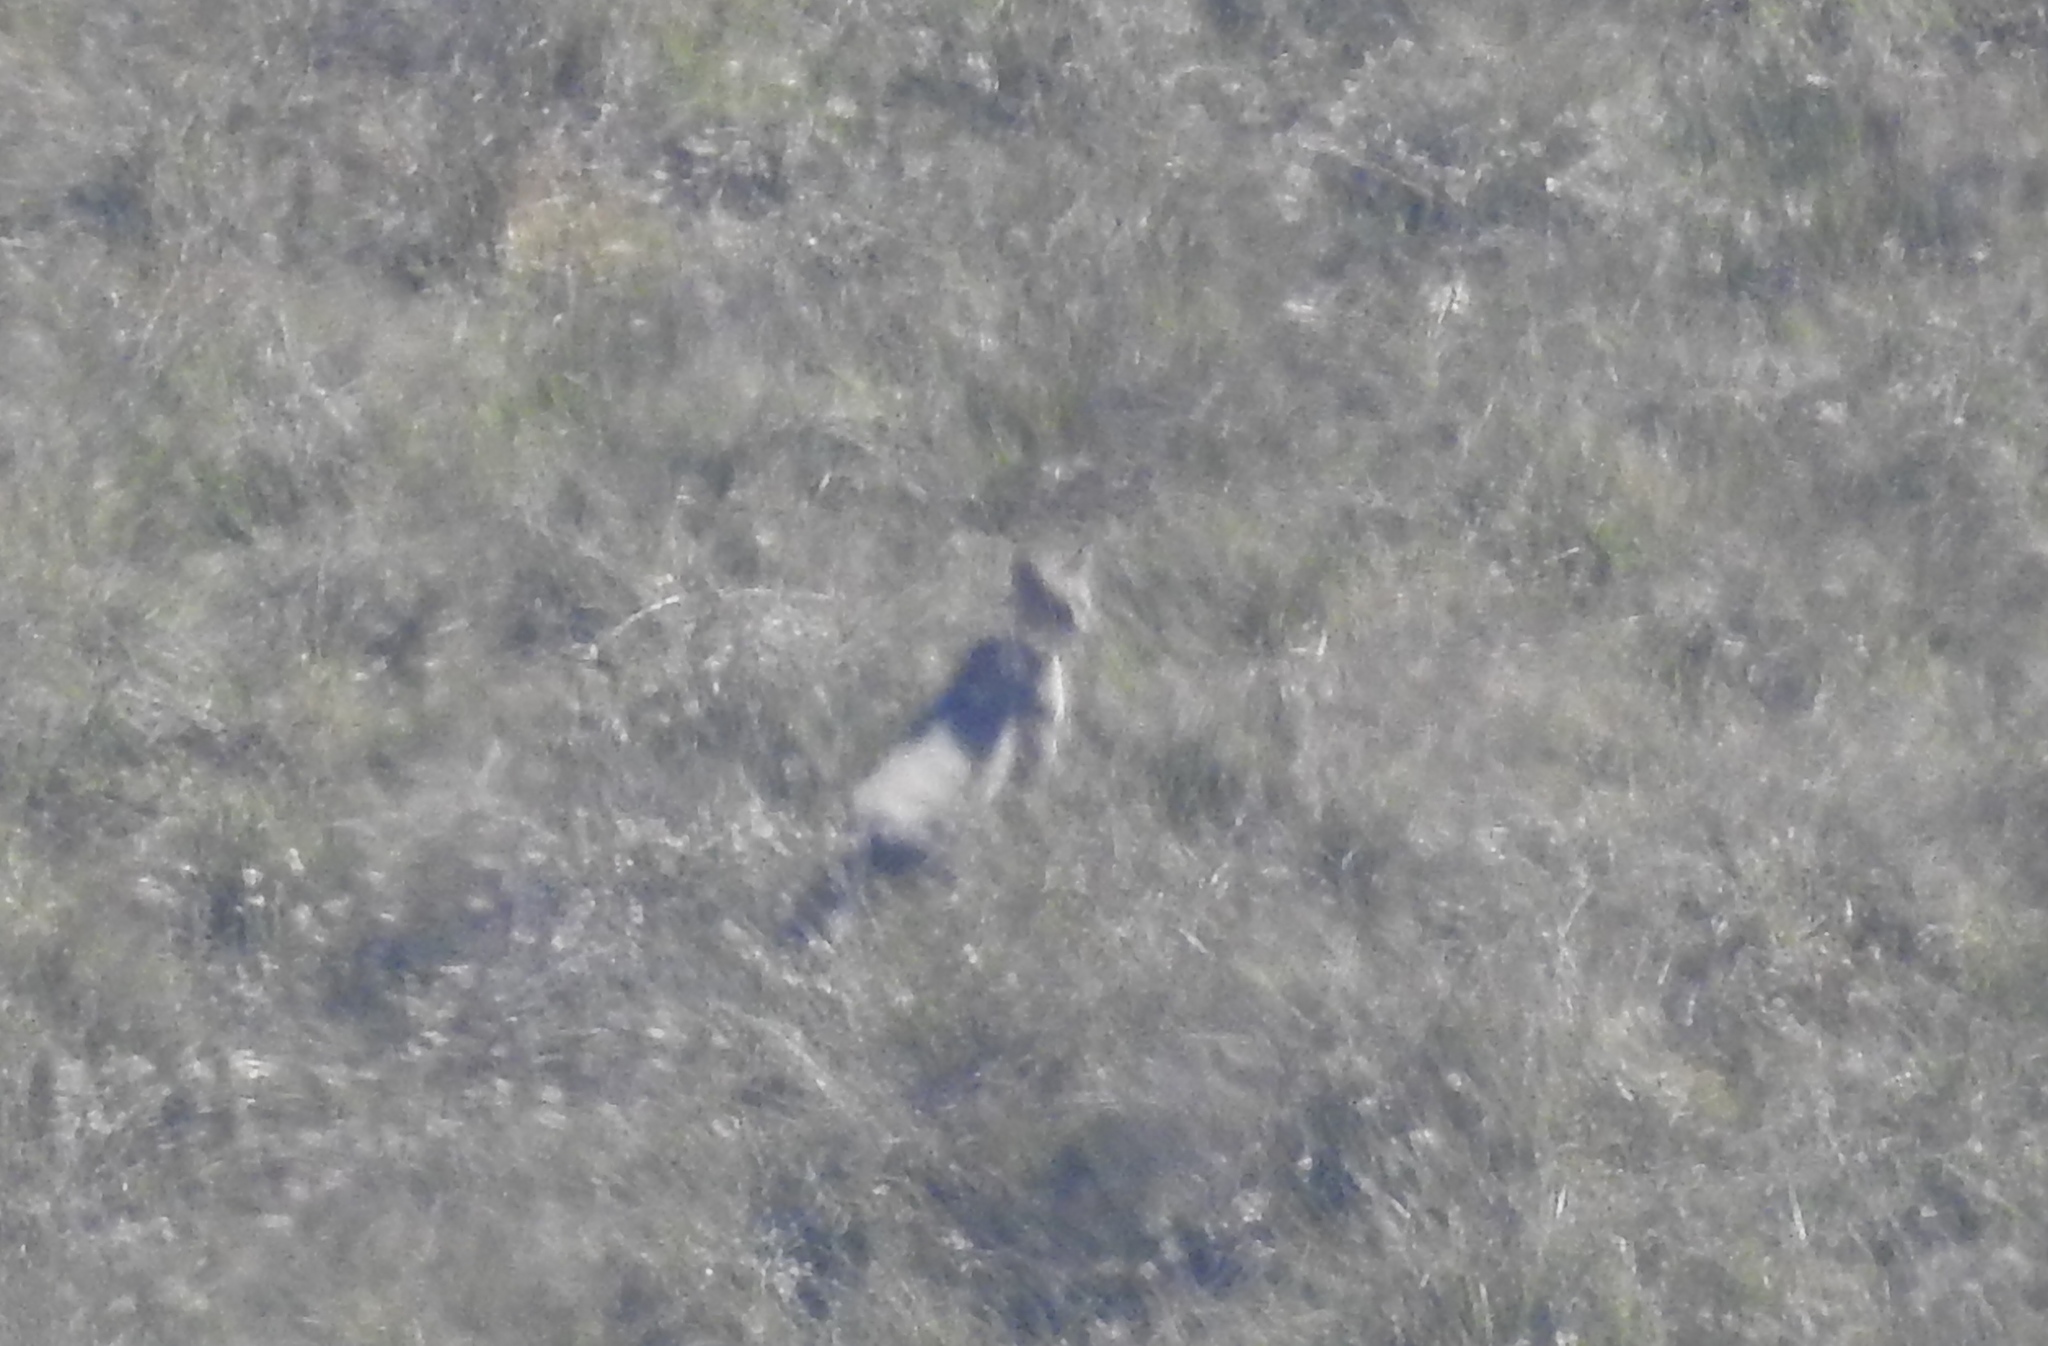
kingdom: Animalia
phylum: Chordata
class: Mammalia
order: Carnivora
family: Felidae
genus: Felis
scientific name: Felis chaus
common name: Jungle cat
